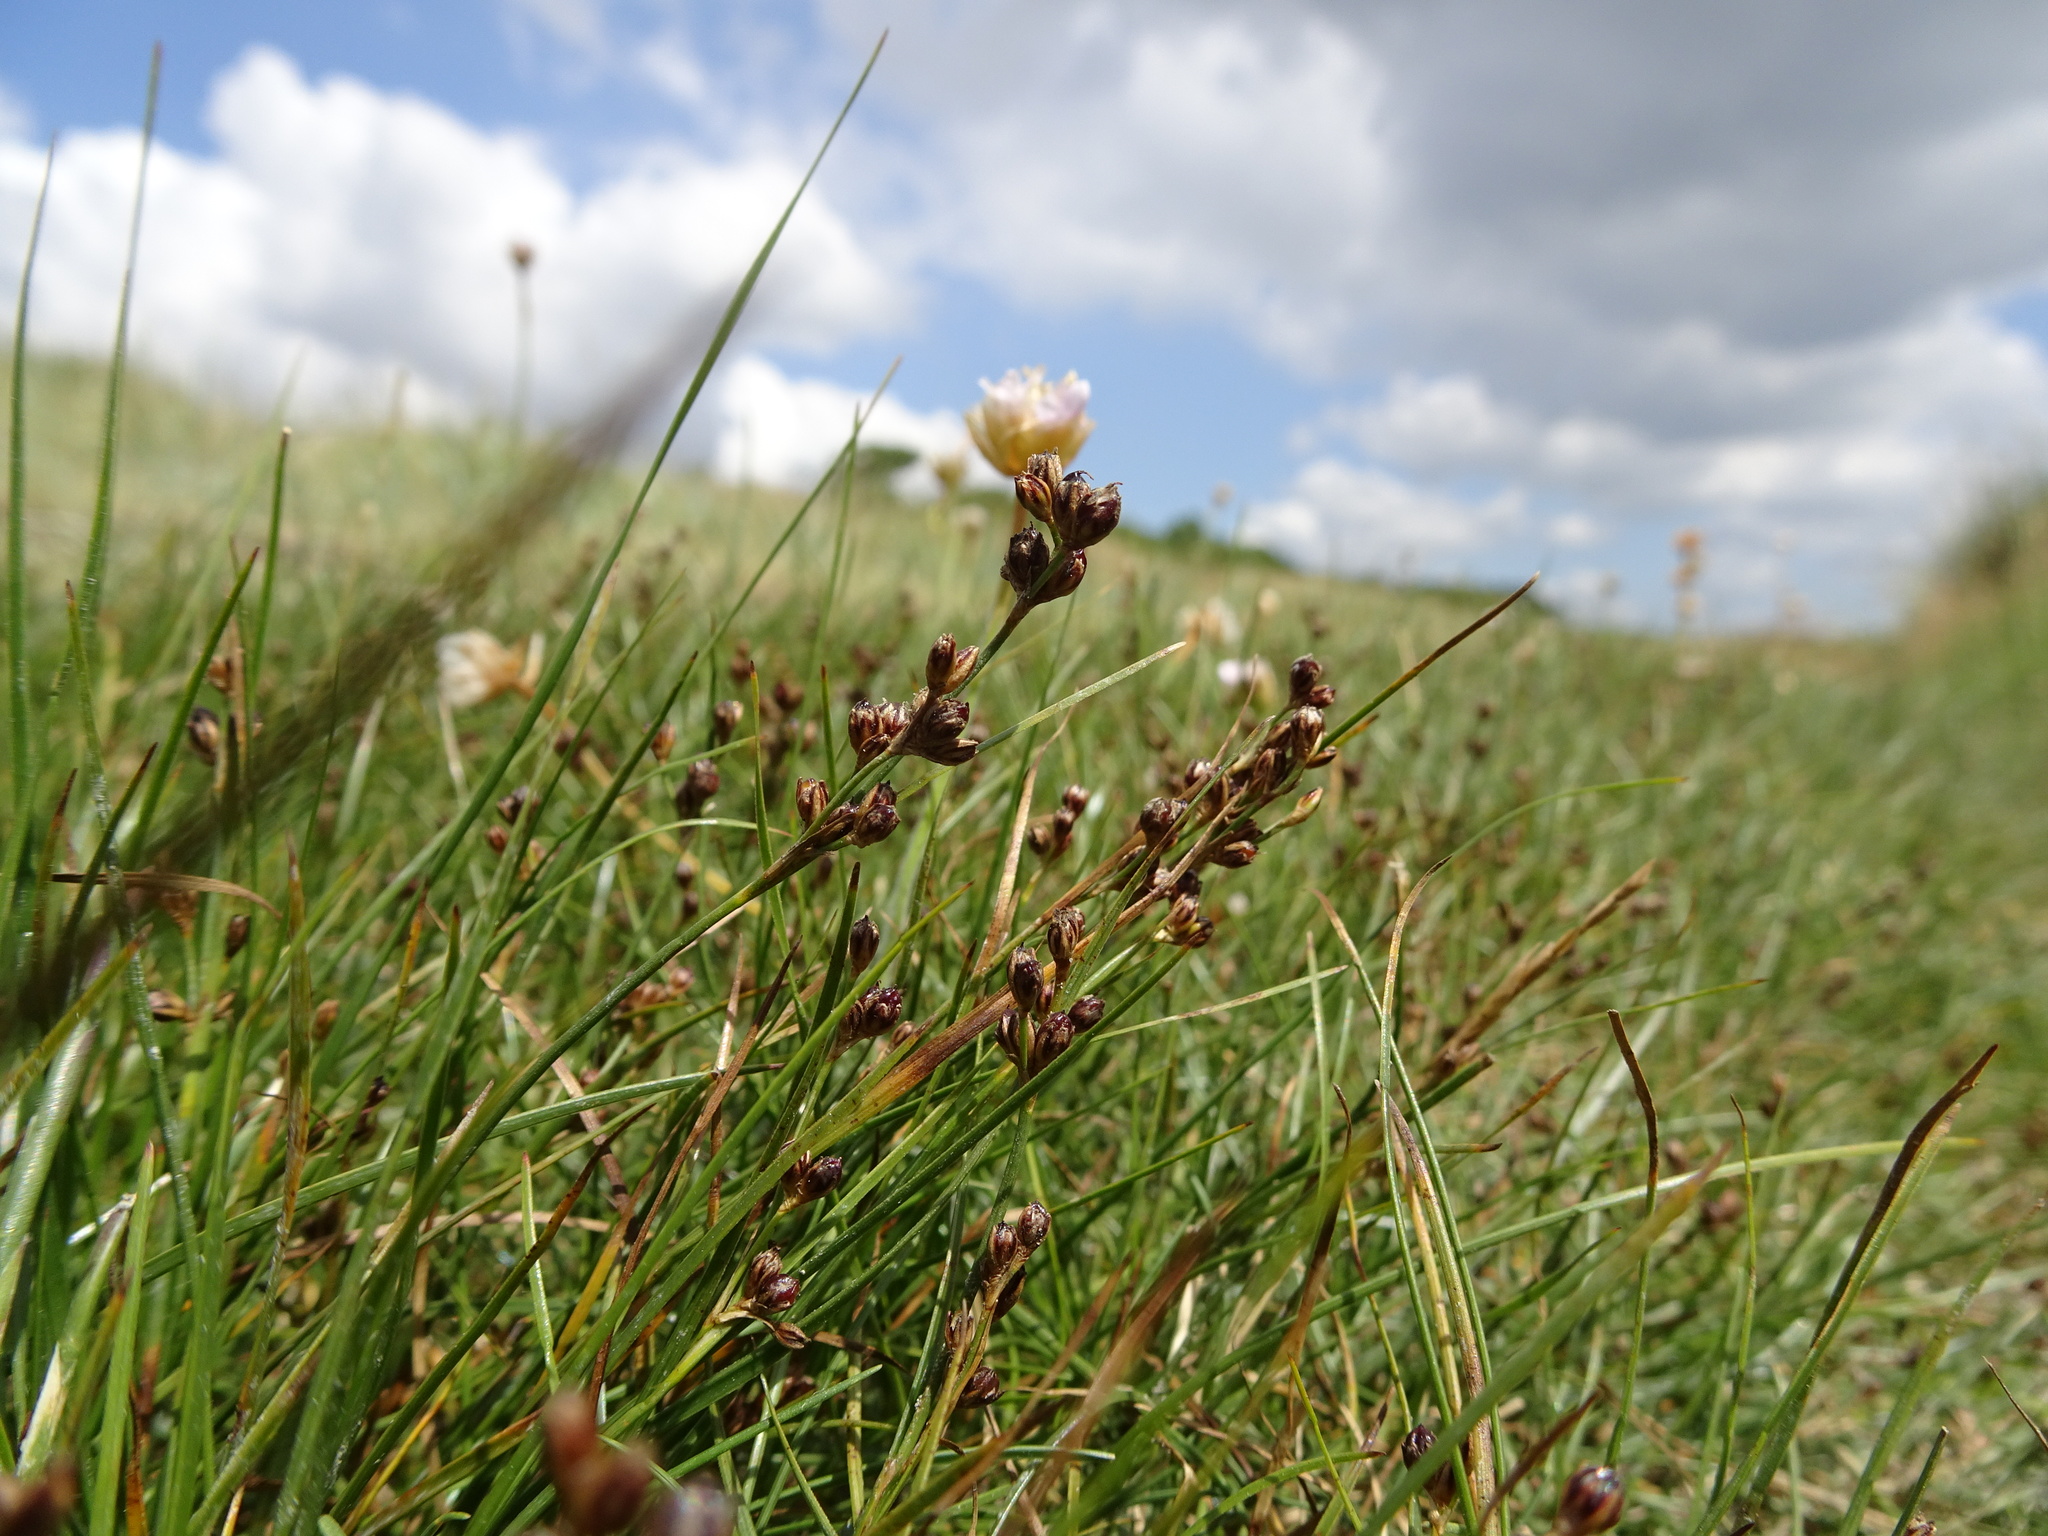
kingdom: Plantae
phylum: Tracheophyta
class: Liliopsida
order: Poales
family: Juncaceae
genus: Juncus
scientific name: Juncus gerardi
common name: Saltmarsh rush
